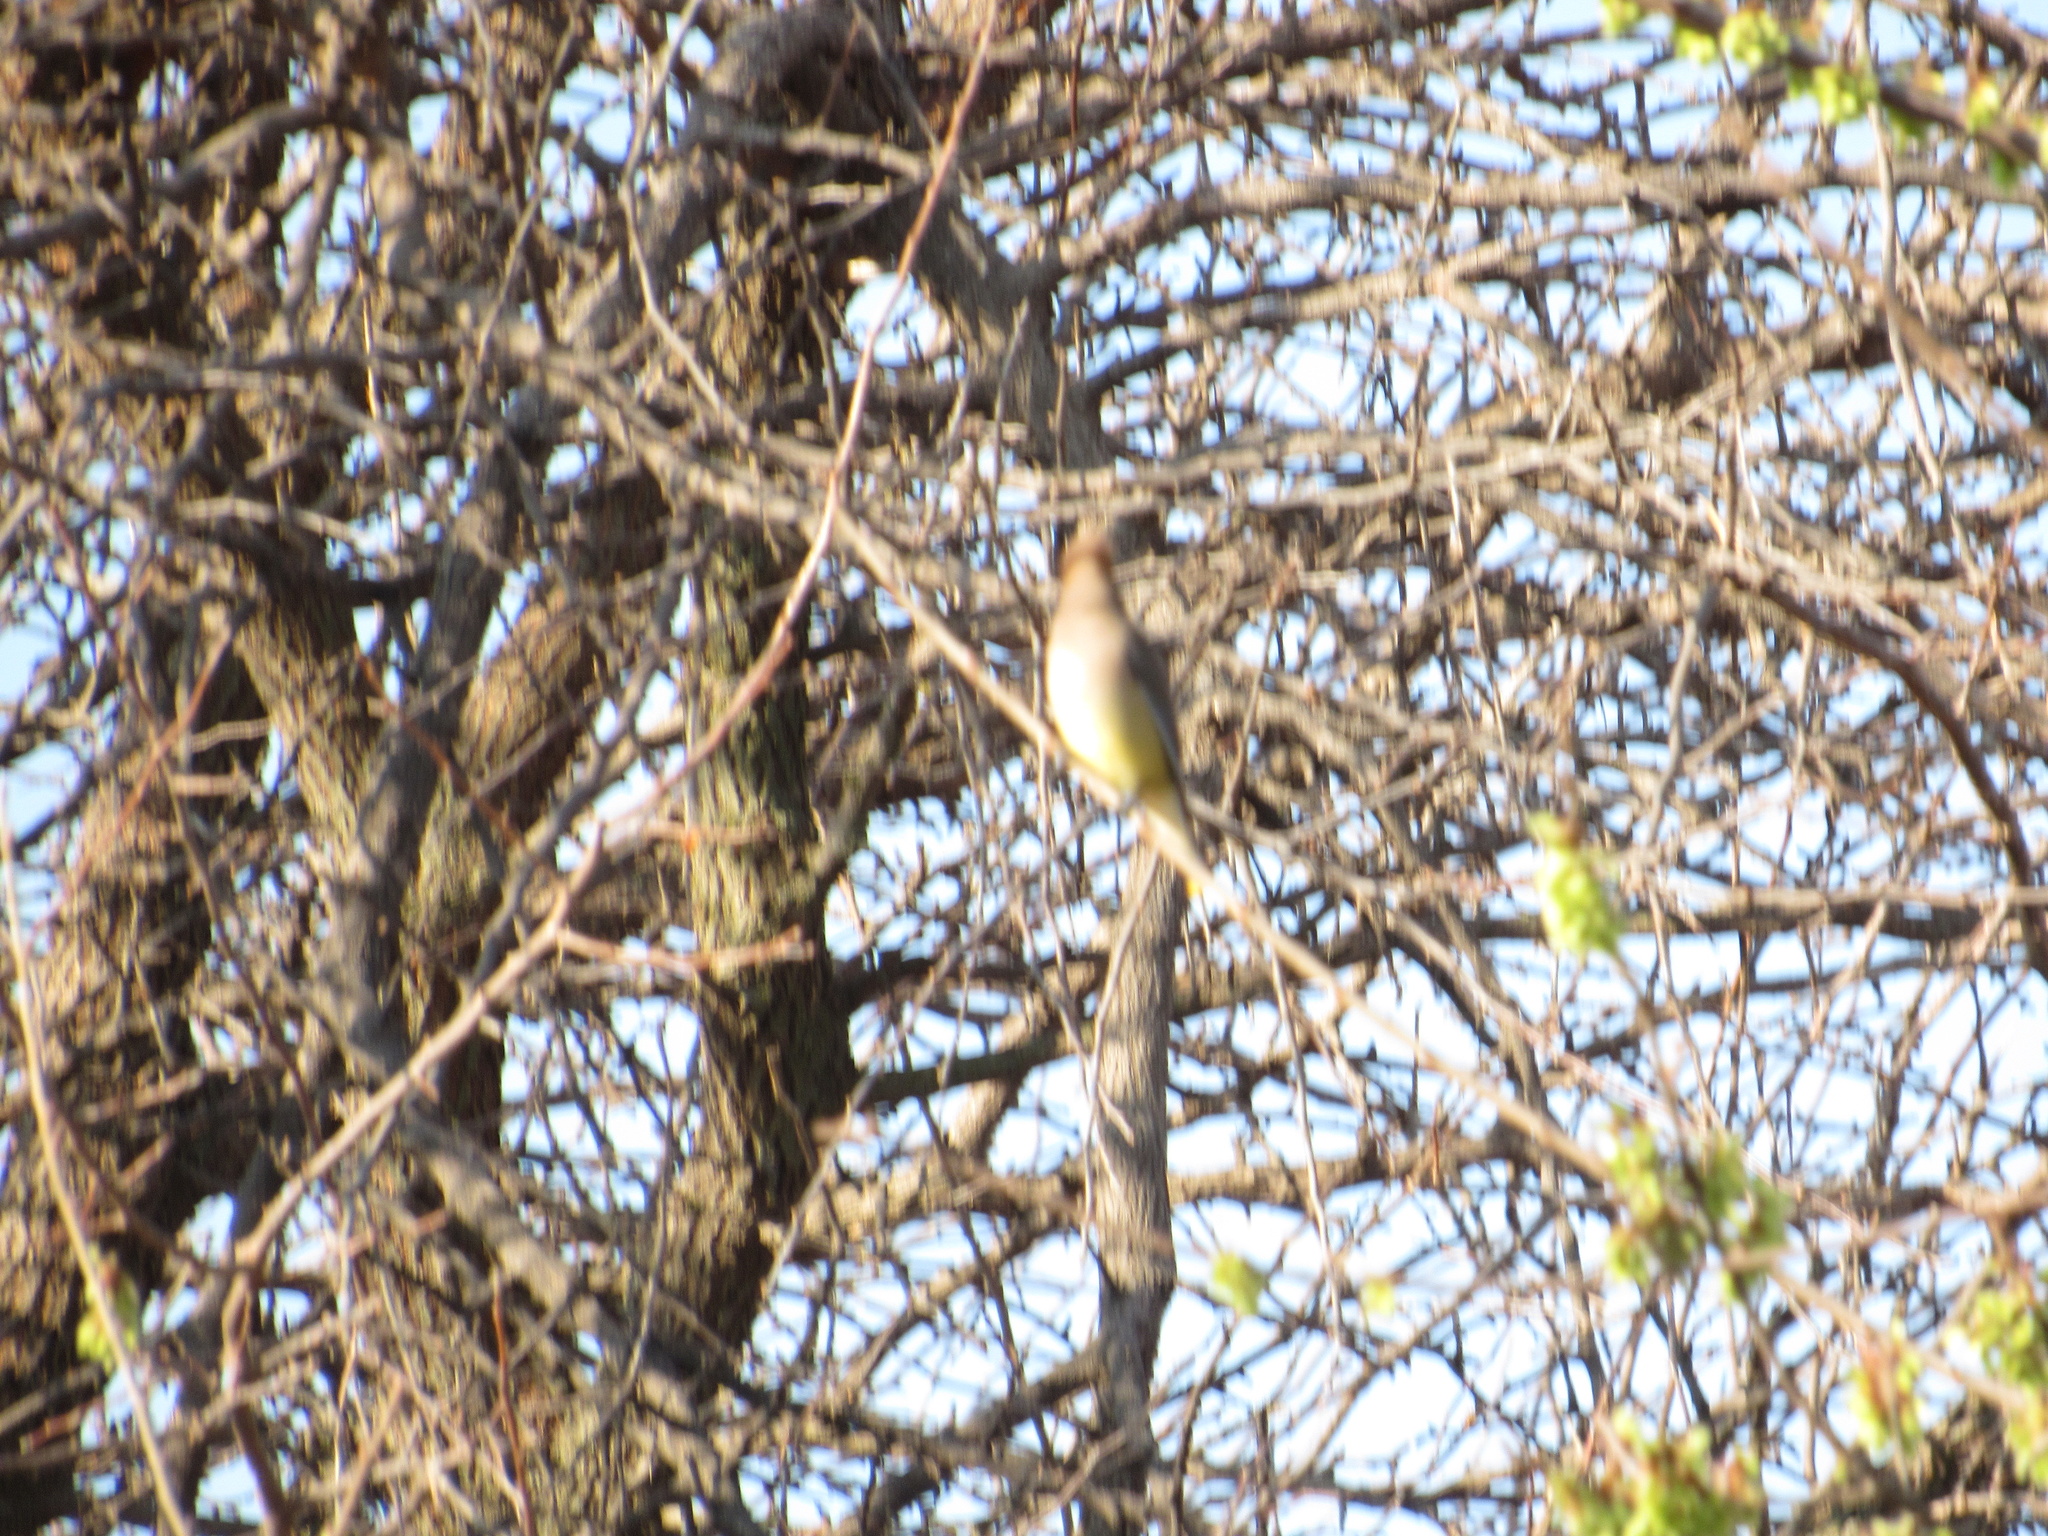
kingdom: Animalia
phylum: Chordata
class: Aves
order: Passeriformes
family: Bombycillidae
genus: Bombycilla
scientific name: Bombycilla cedrorum
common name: Cedar waxwing
